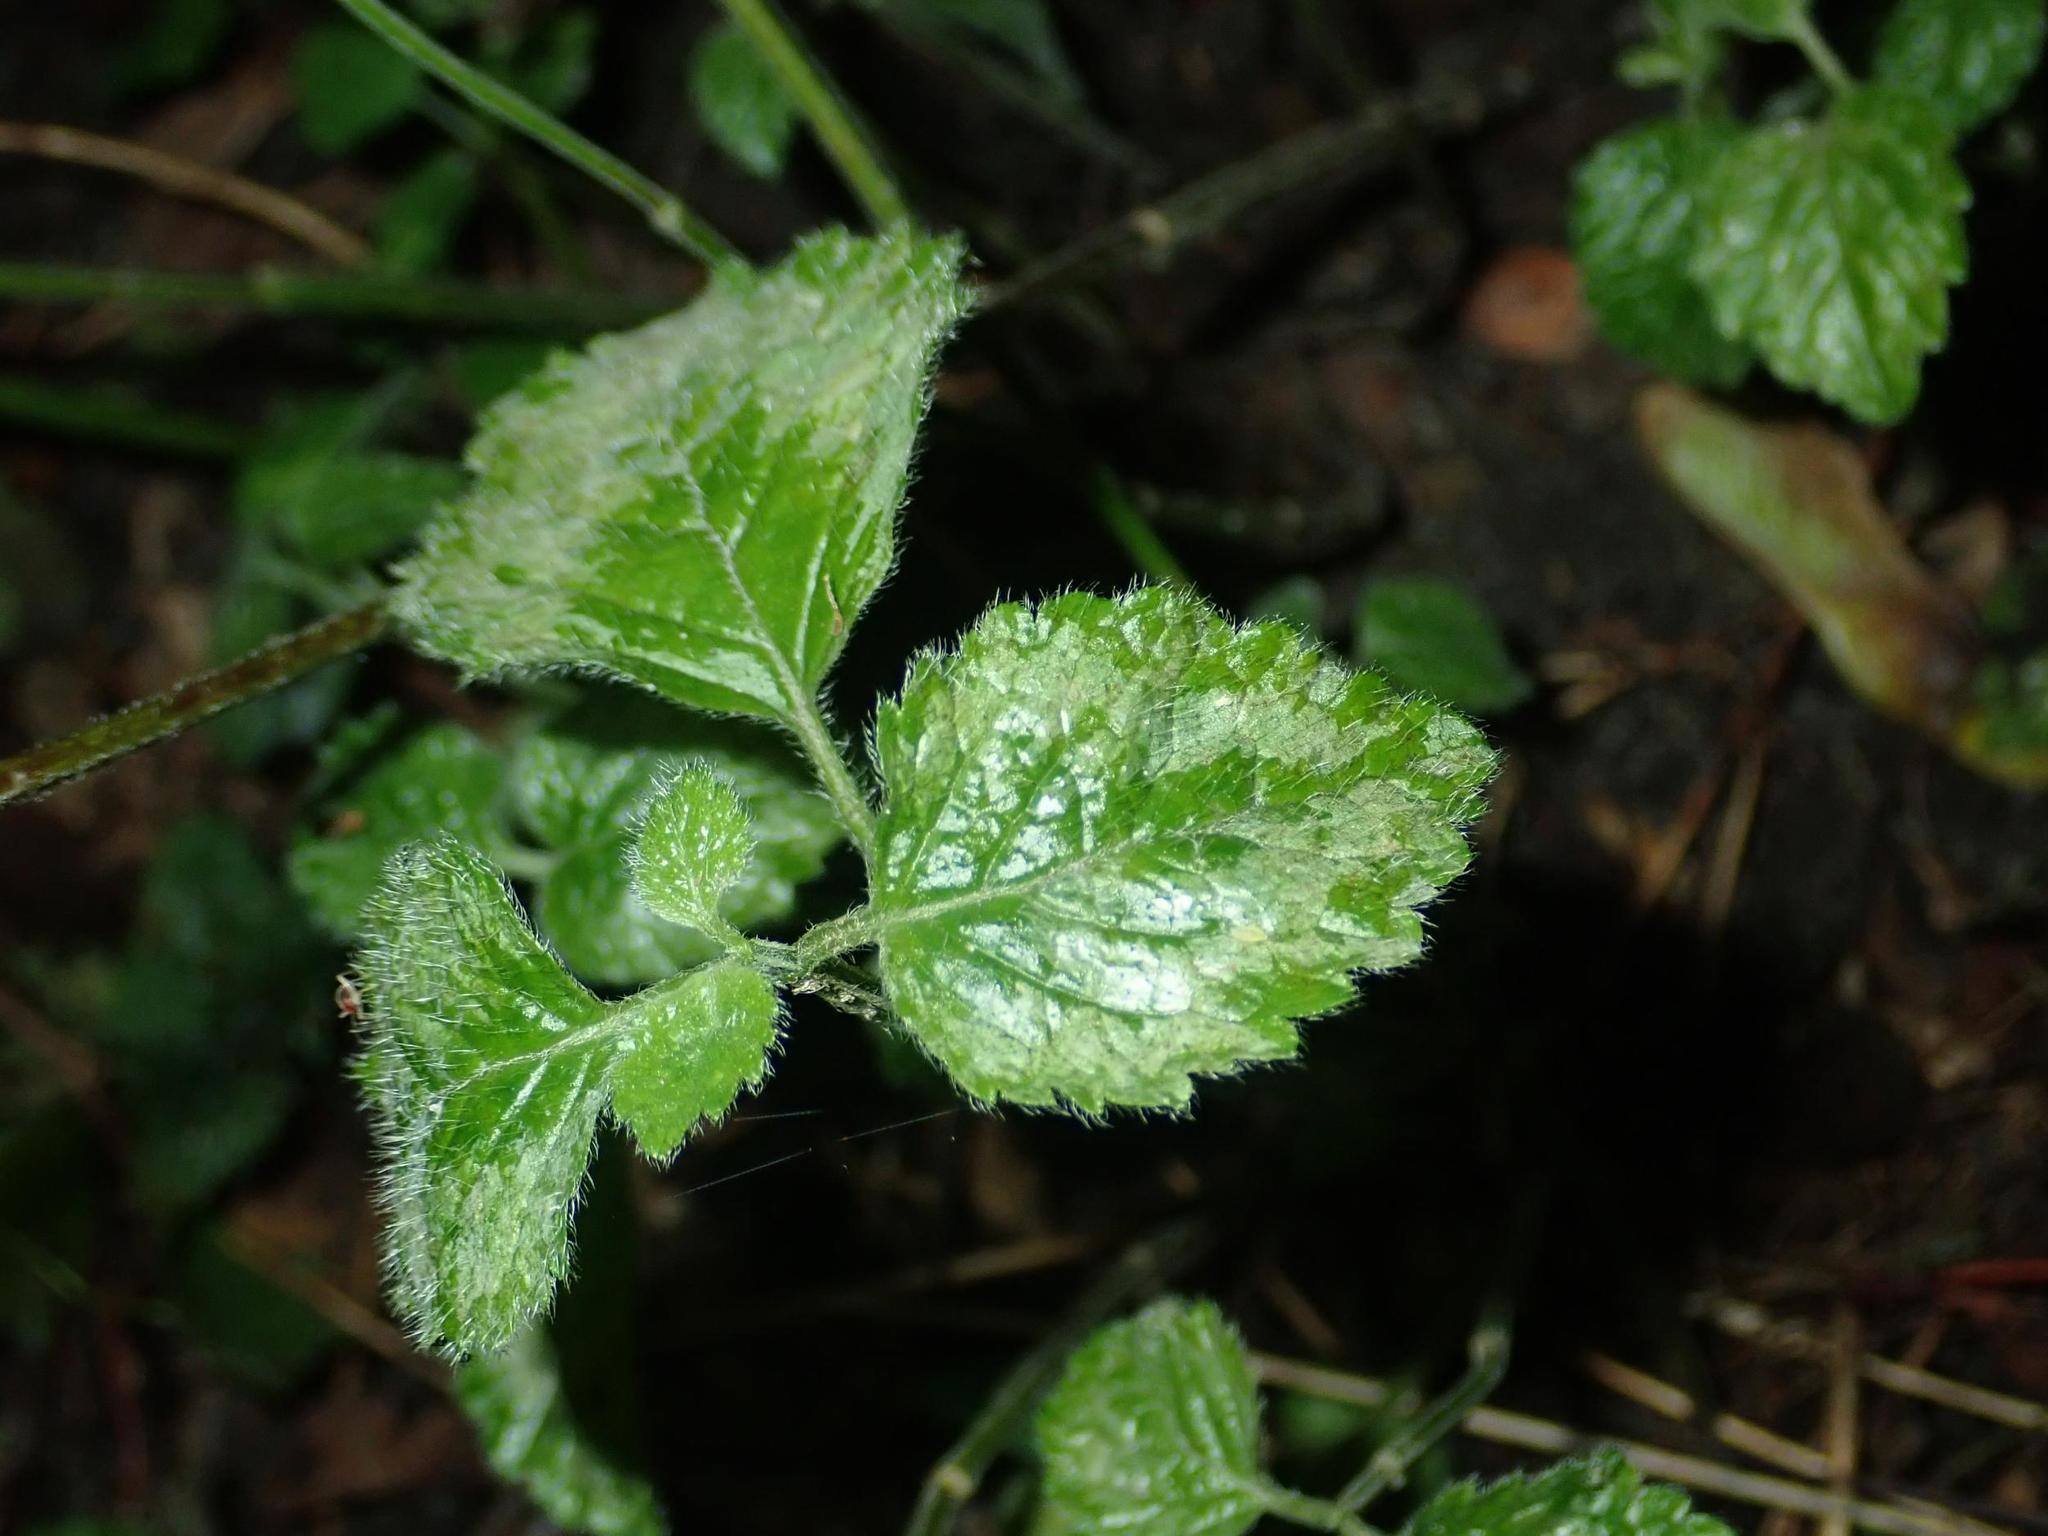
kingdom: Plantae
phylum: Tracheophyta
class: Magnoliopsida
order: Lamiales
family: Lamiaceae
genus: Lamium
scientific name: Lamium galeobdolon
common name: Yellow archangel
